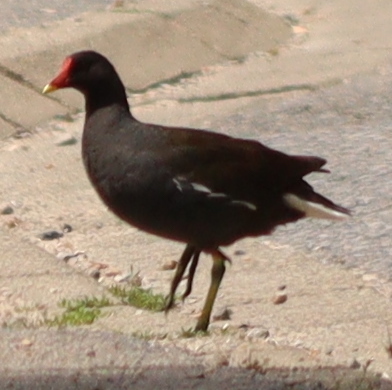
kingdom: Animalia
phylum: Chordata
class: Aves
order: Gruiformes
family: Rallidae
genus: Gallinula
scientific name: Gallinula chloropus
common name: Common moorhen
